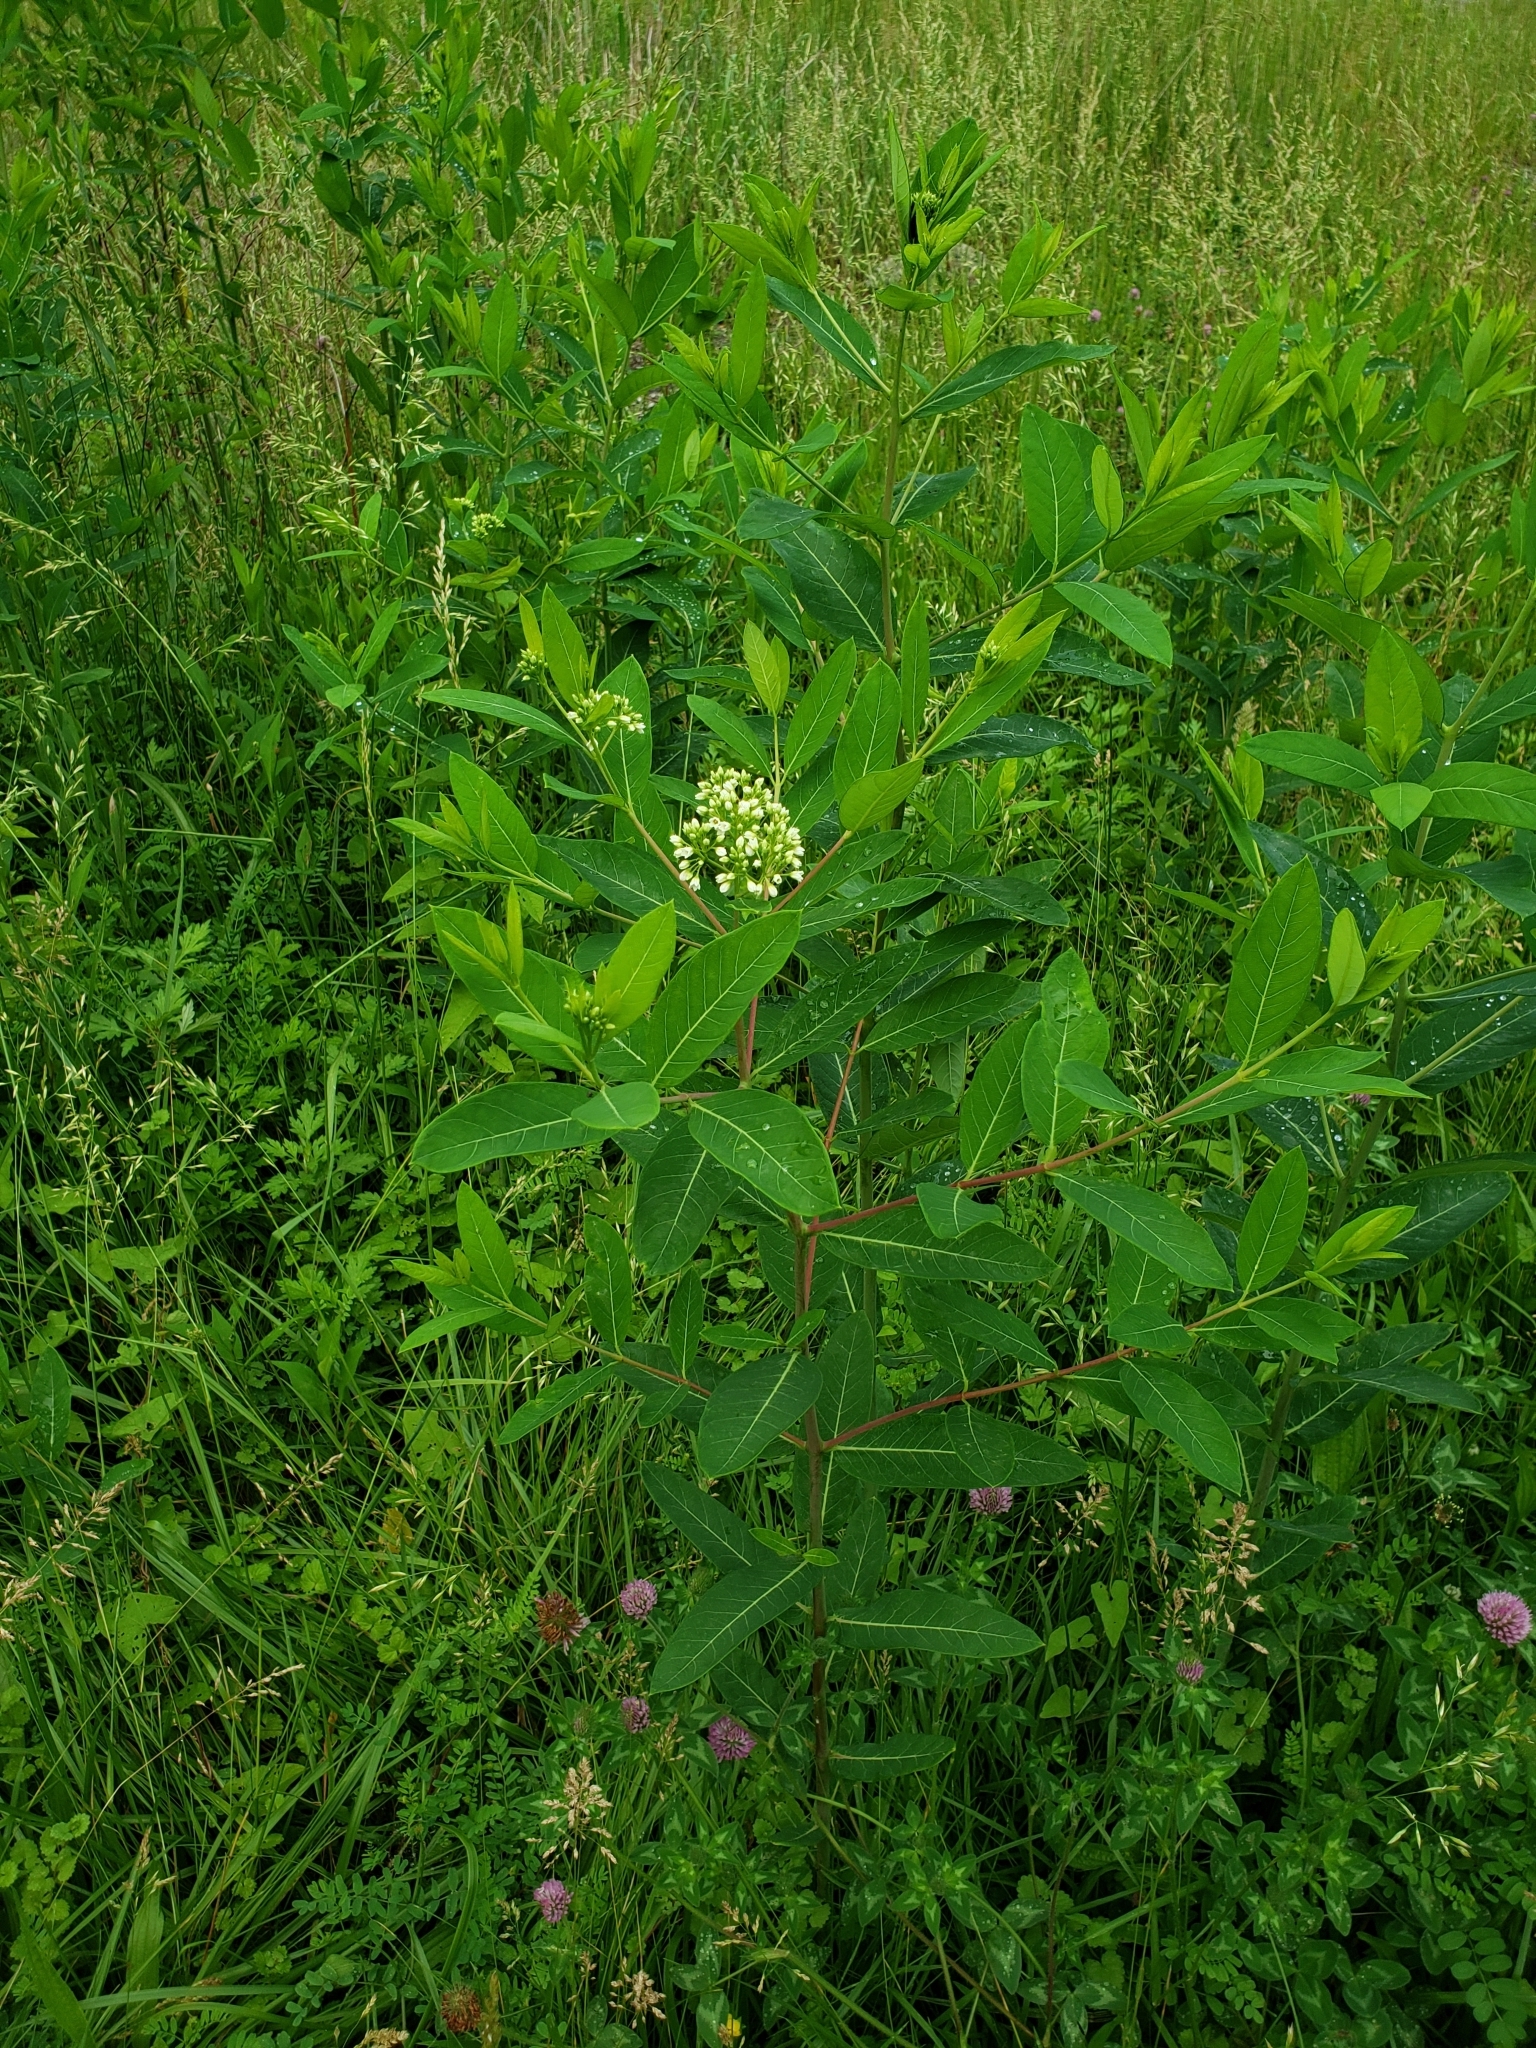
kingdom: Plantae
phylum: Tracheophyta
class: Magnoliopsida
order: Gentianales
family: Apocynaceae
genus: Apocynum
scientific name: Apocynum cannabinum
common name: Hemp dogbane
